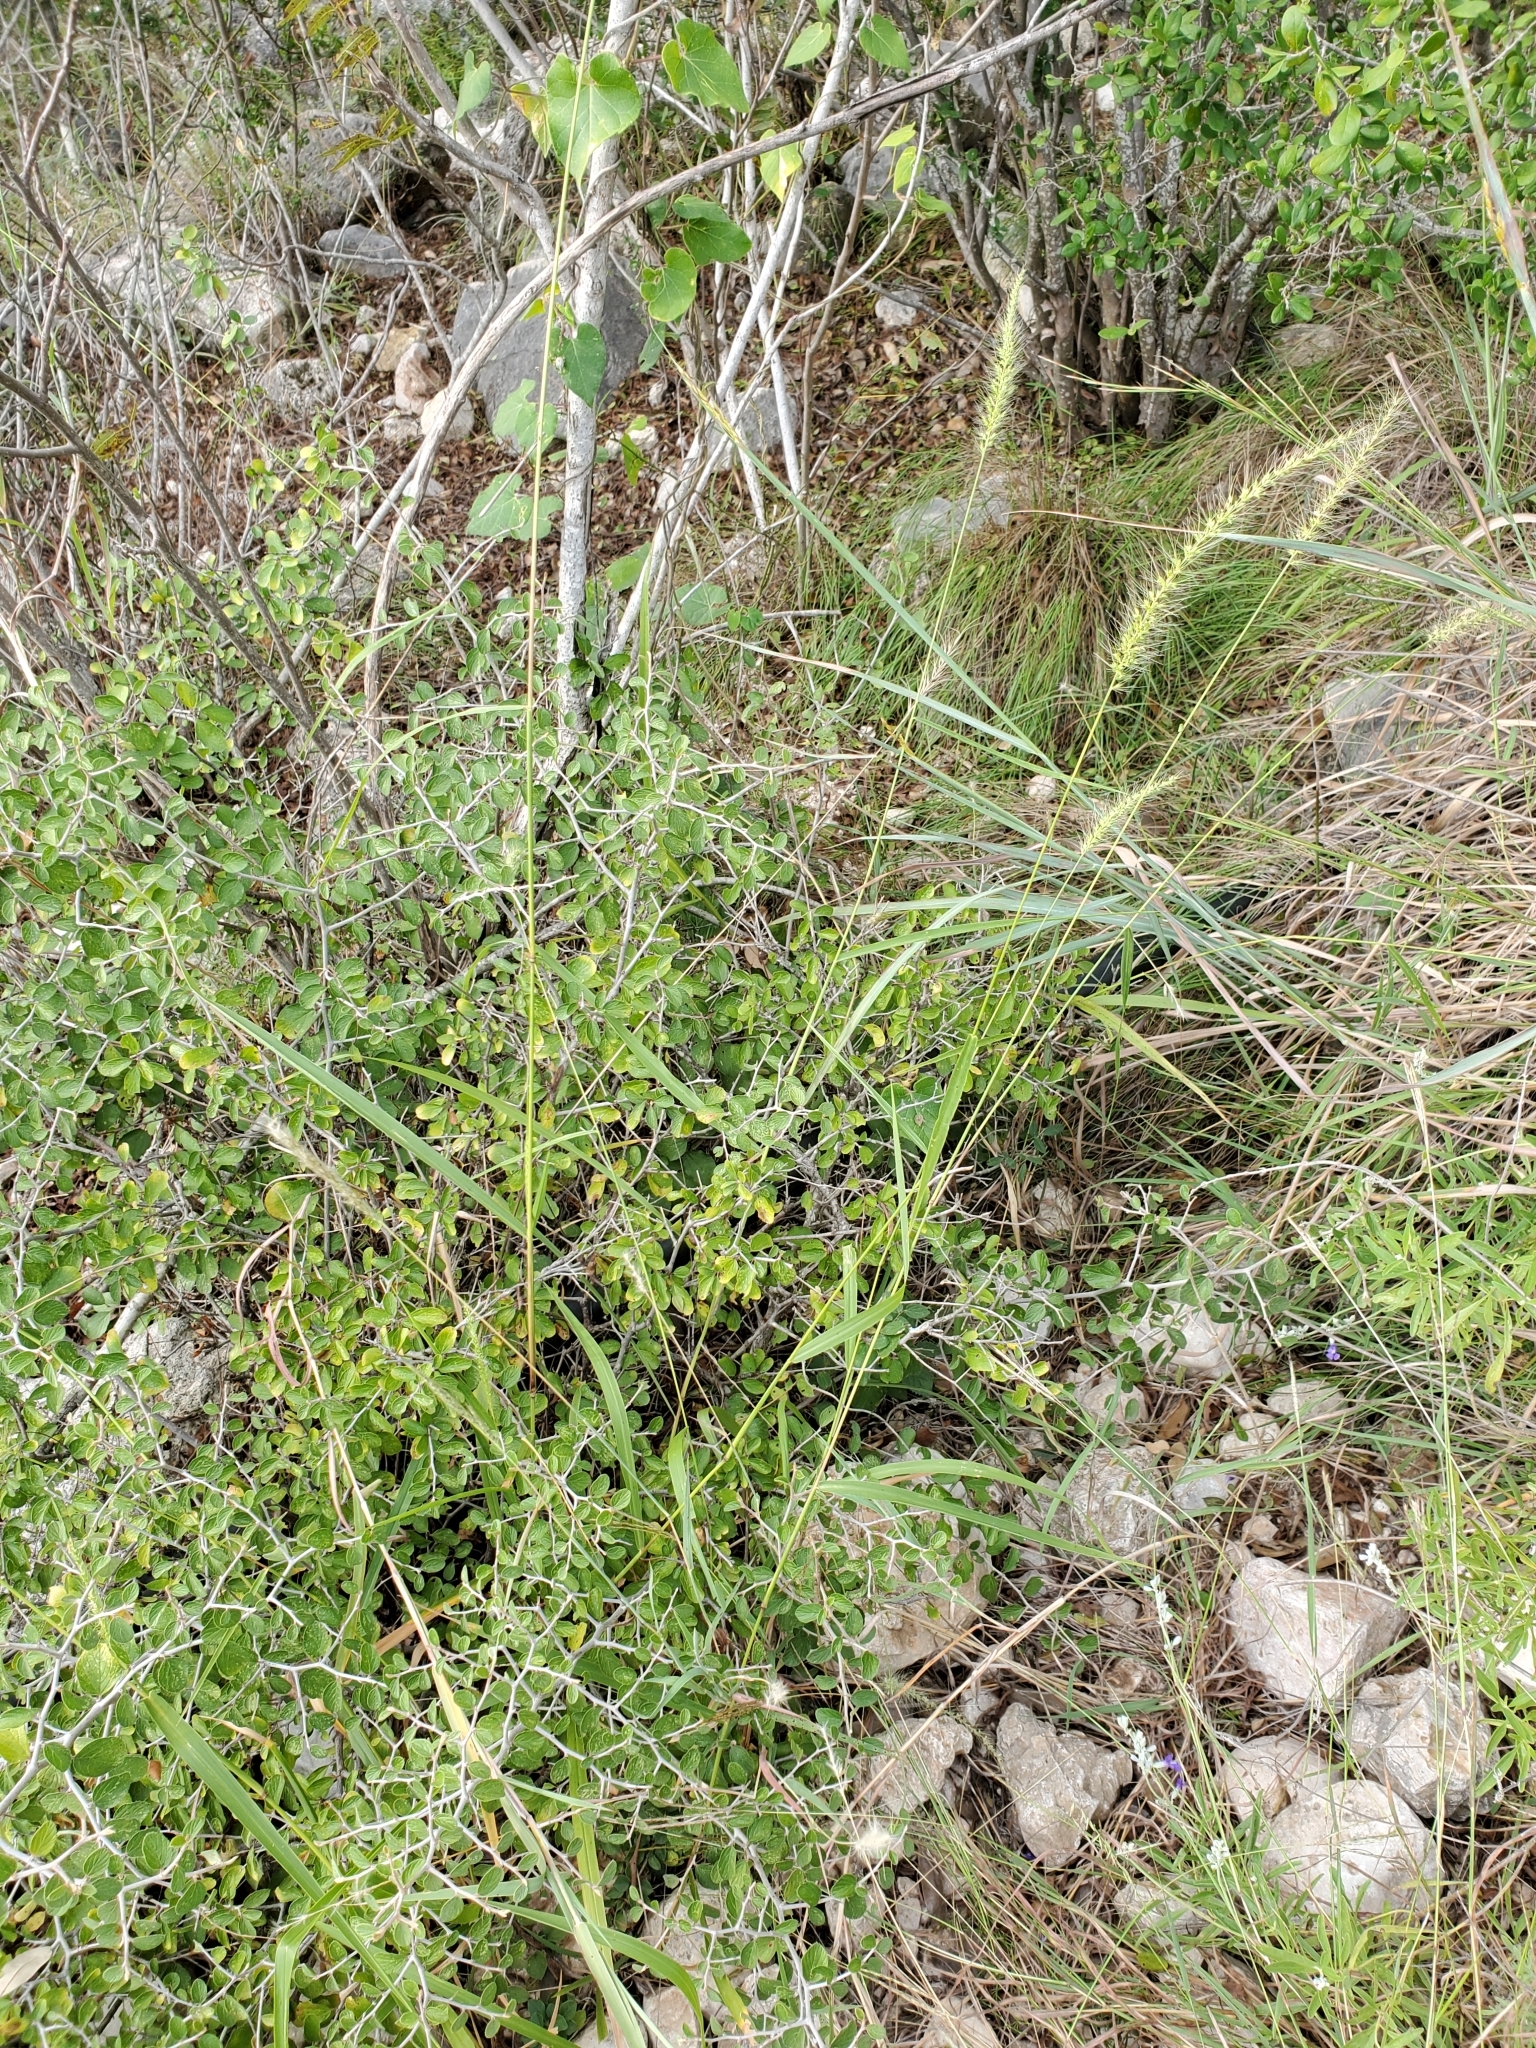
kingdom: Plantae
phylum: Tracheophyta
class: Liliopsida
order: Poales
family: Poaceae
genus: Setaria
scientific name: Setaria scheelei
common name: Southwestern bristle grass
